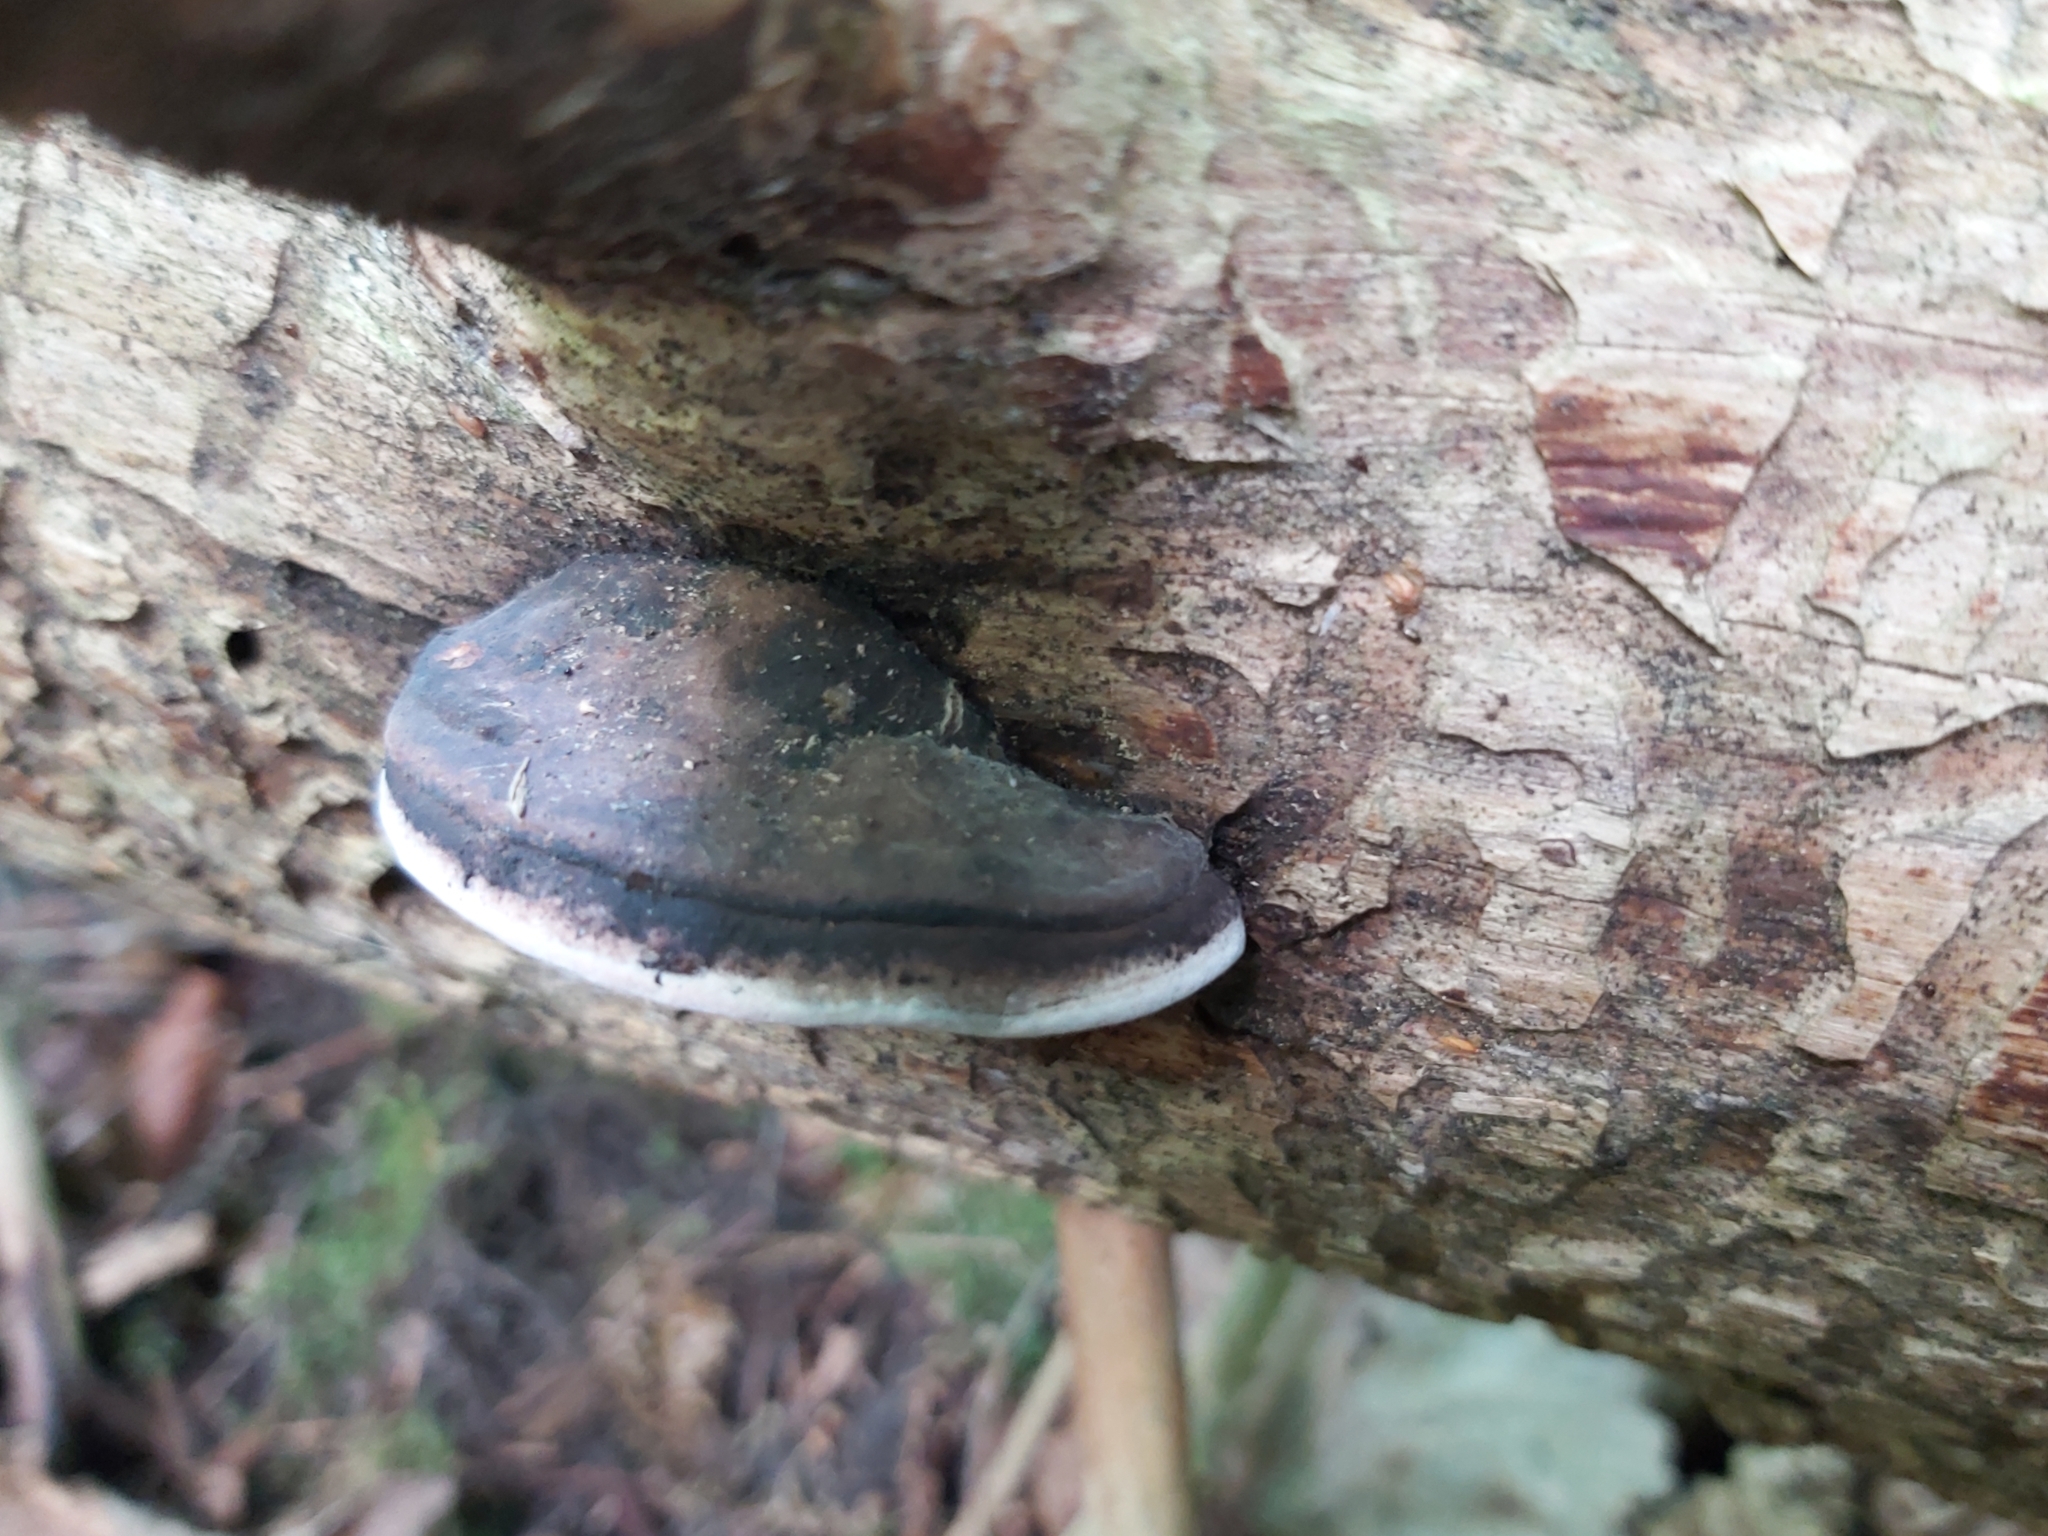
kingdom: Fungi
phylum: Basidiomycota
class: Agaricomycetes
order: Polyporales
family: Fomitopsidaceae
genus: Rhodofomes
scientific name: Rhodofomes roseus
